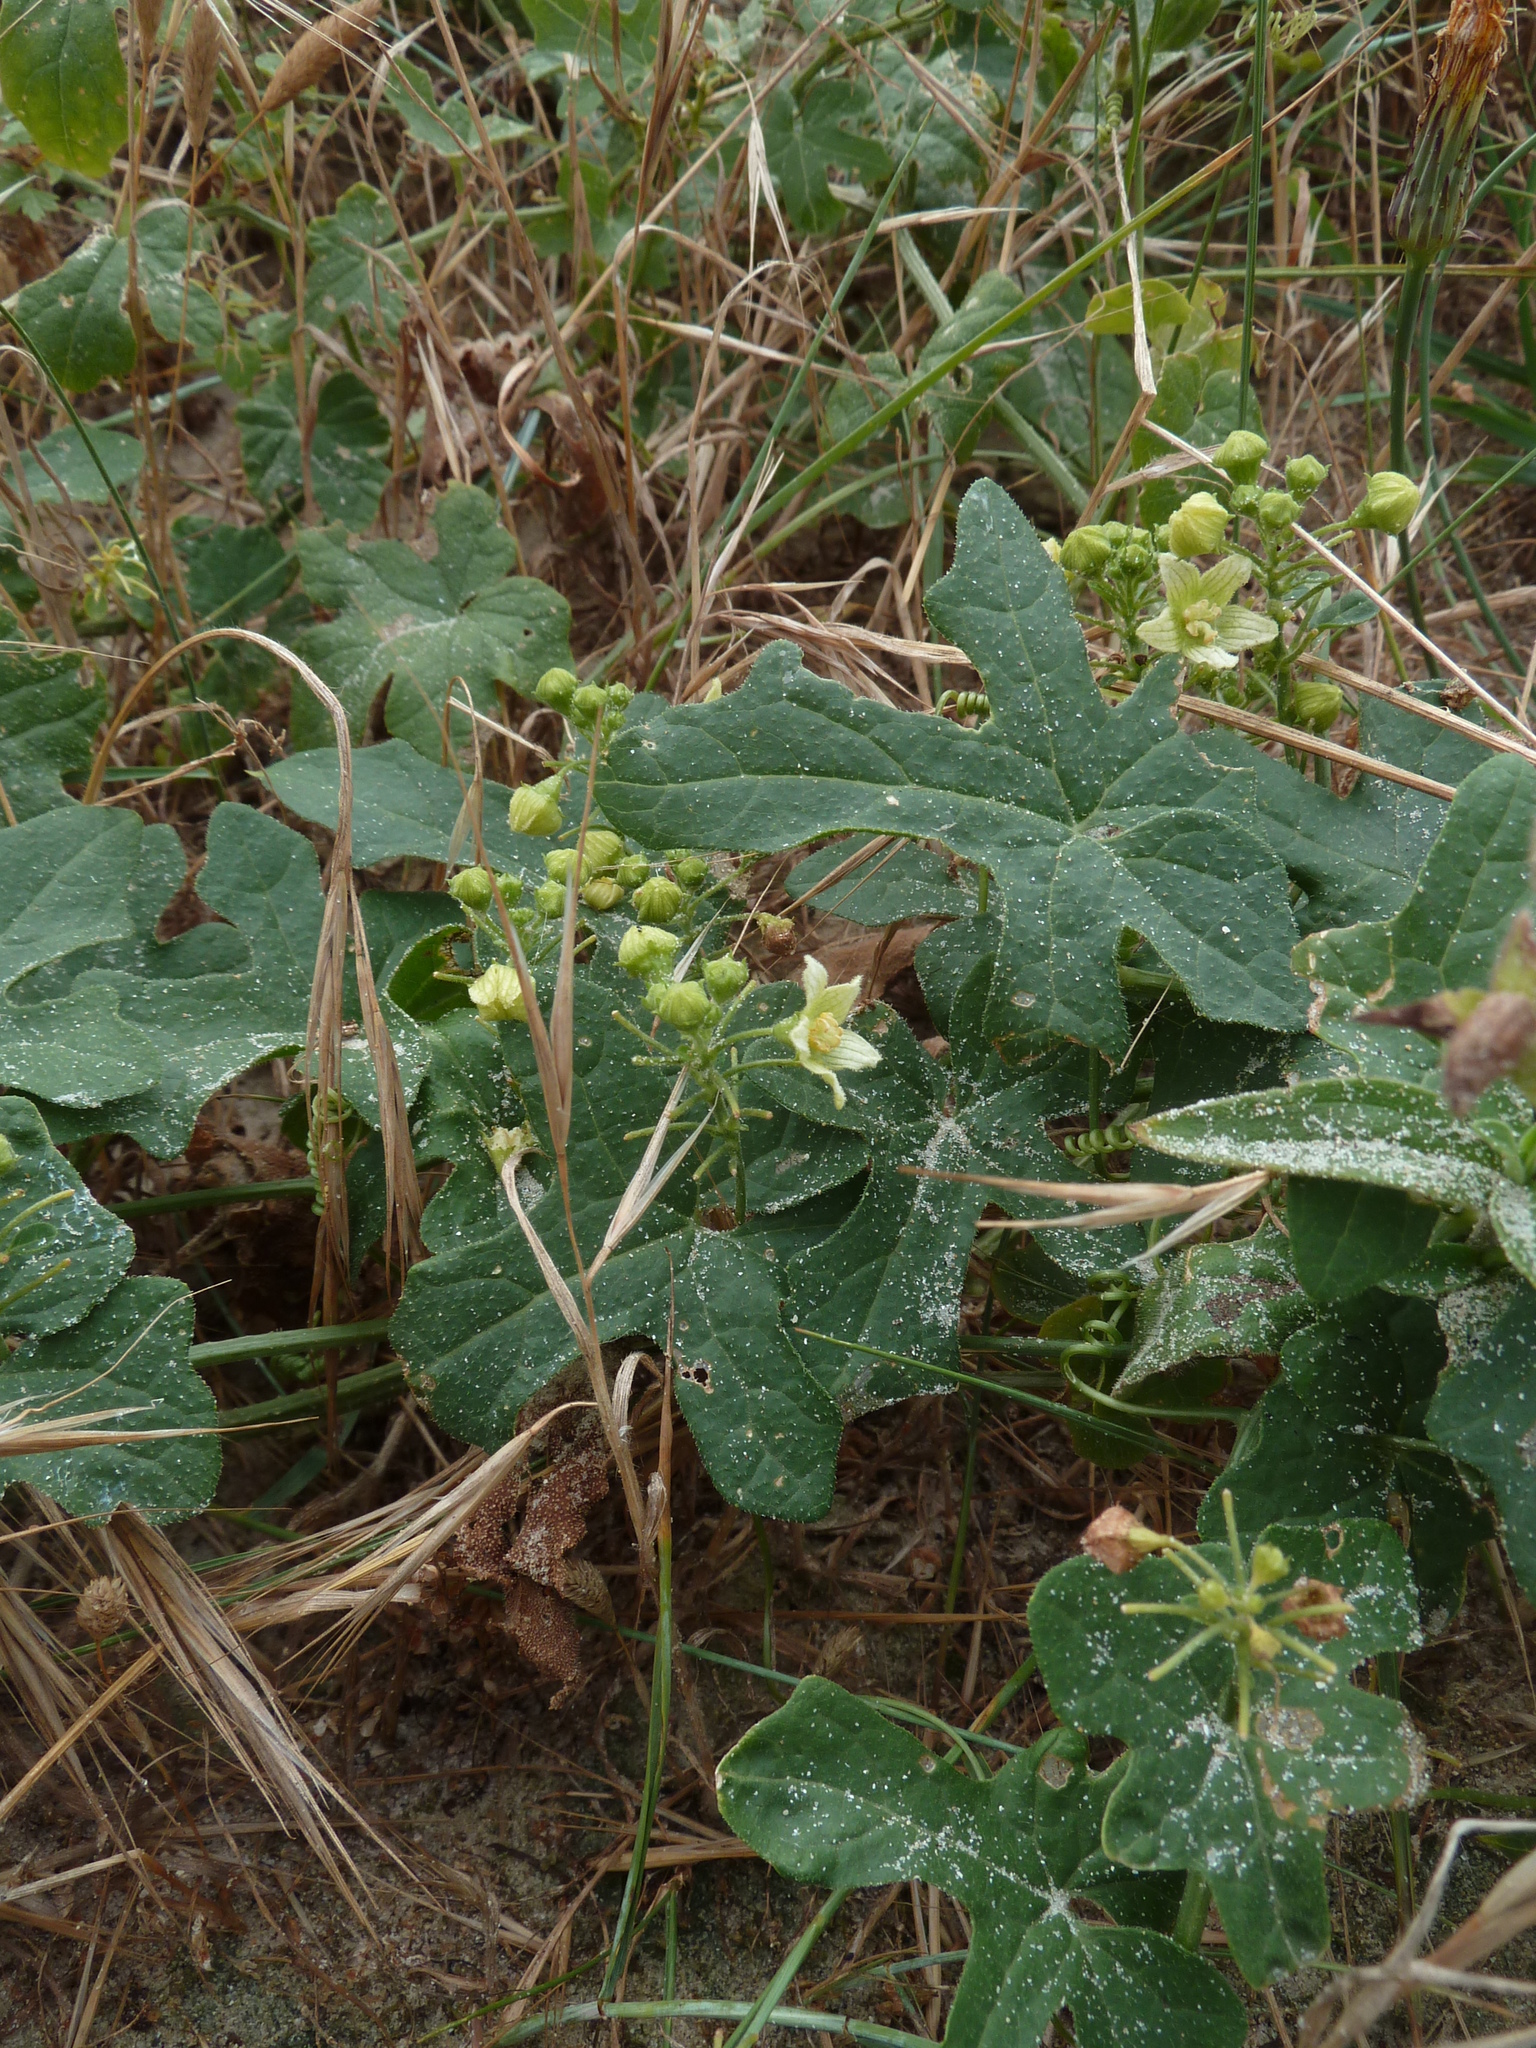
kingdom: Plantae
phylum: Tracheophyta
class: Magnoliopsida
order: Cucurbitales
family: Cucurbitaceae
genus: Bryonia
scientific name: Bryonia cretica
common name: Cretan bryony
